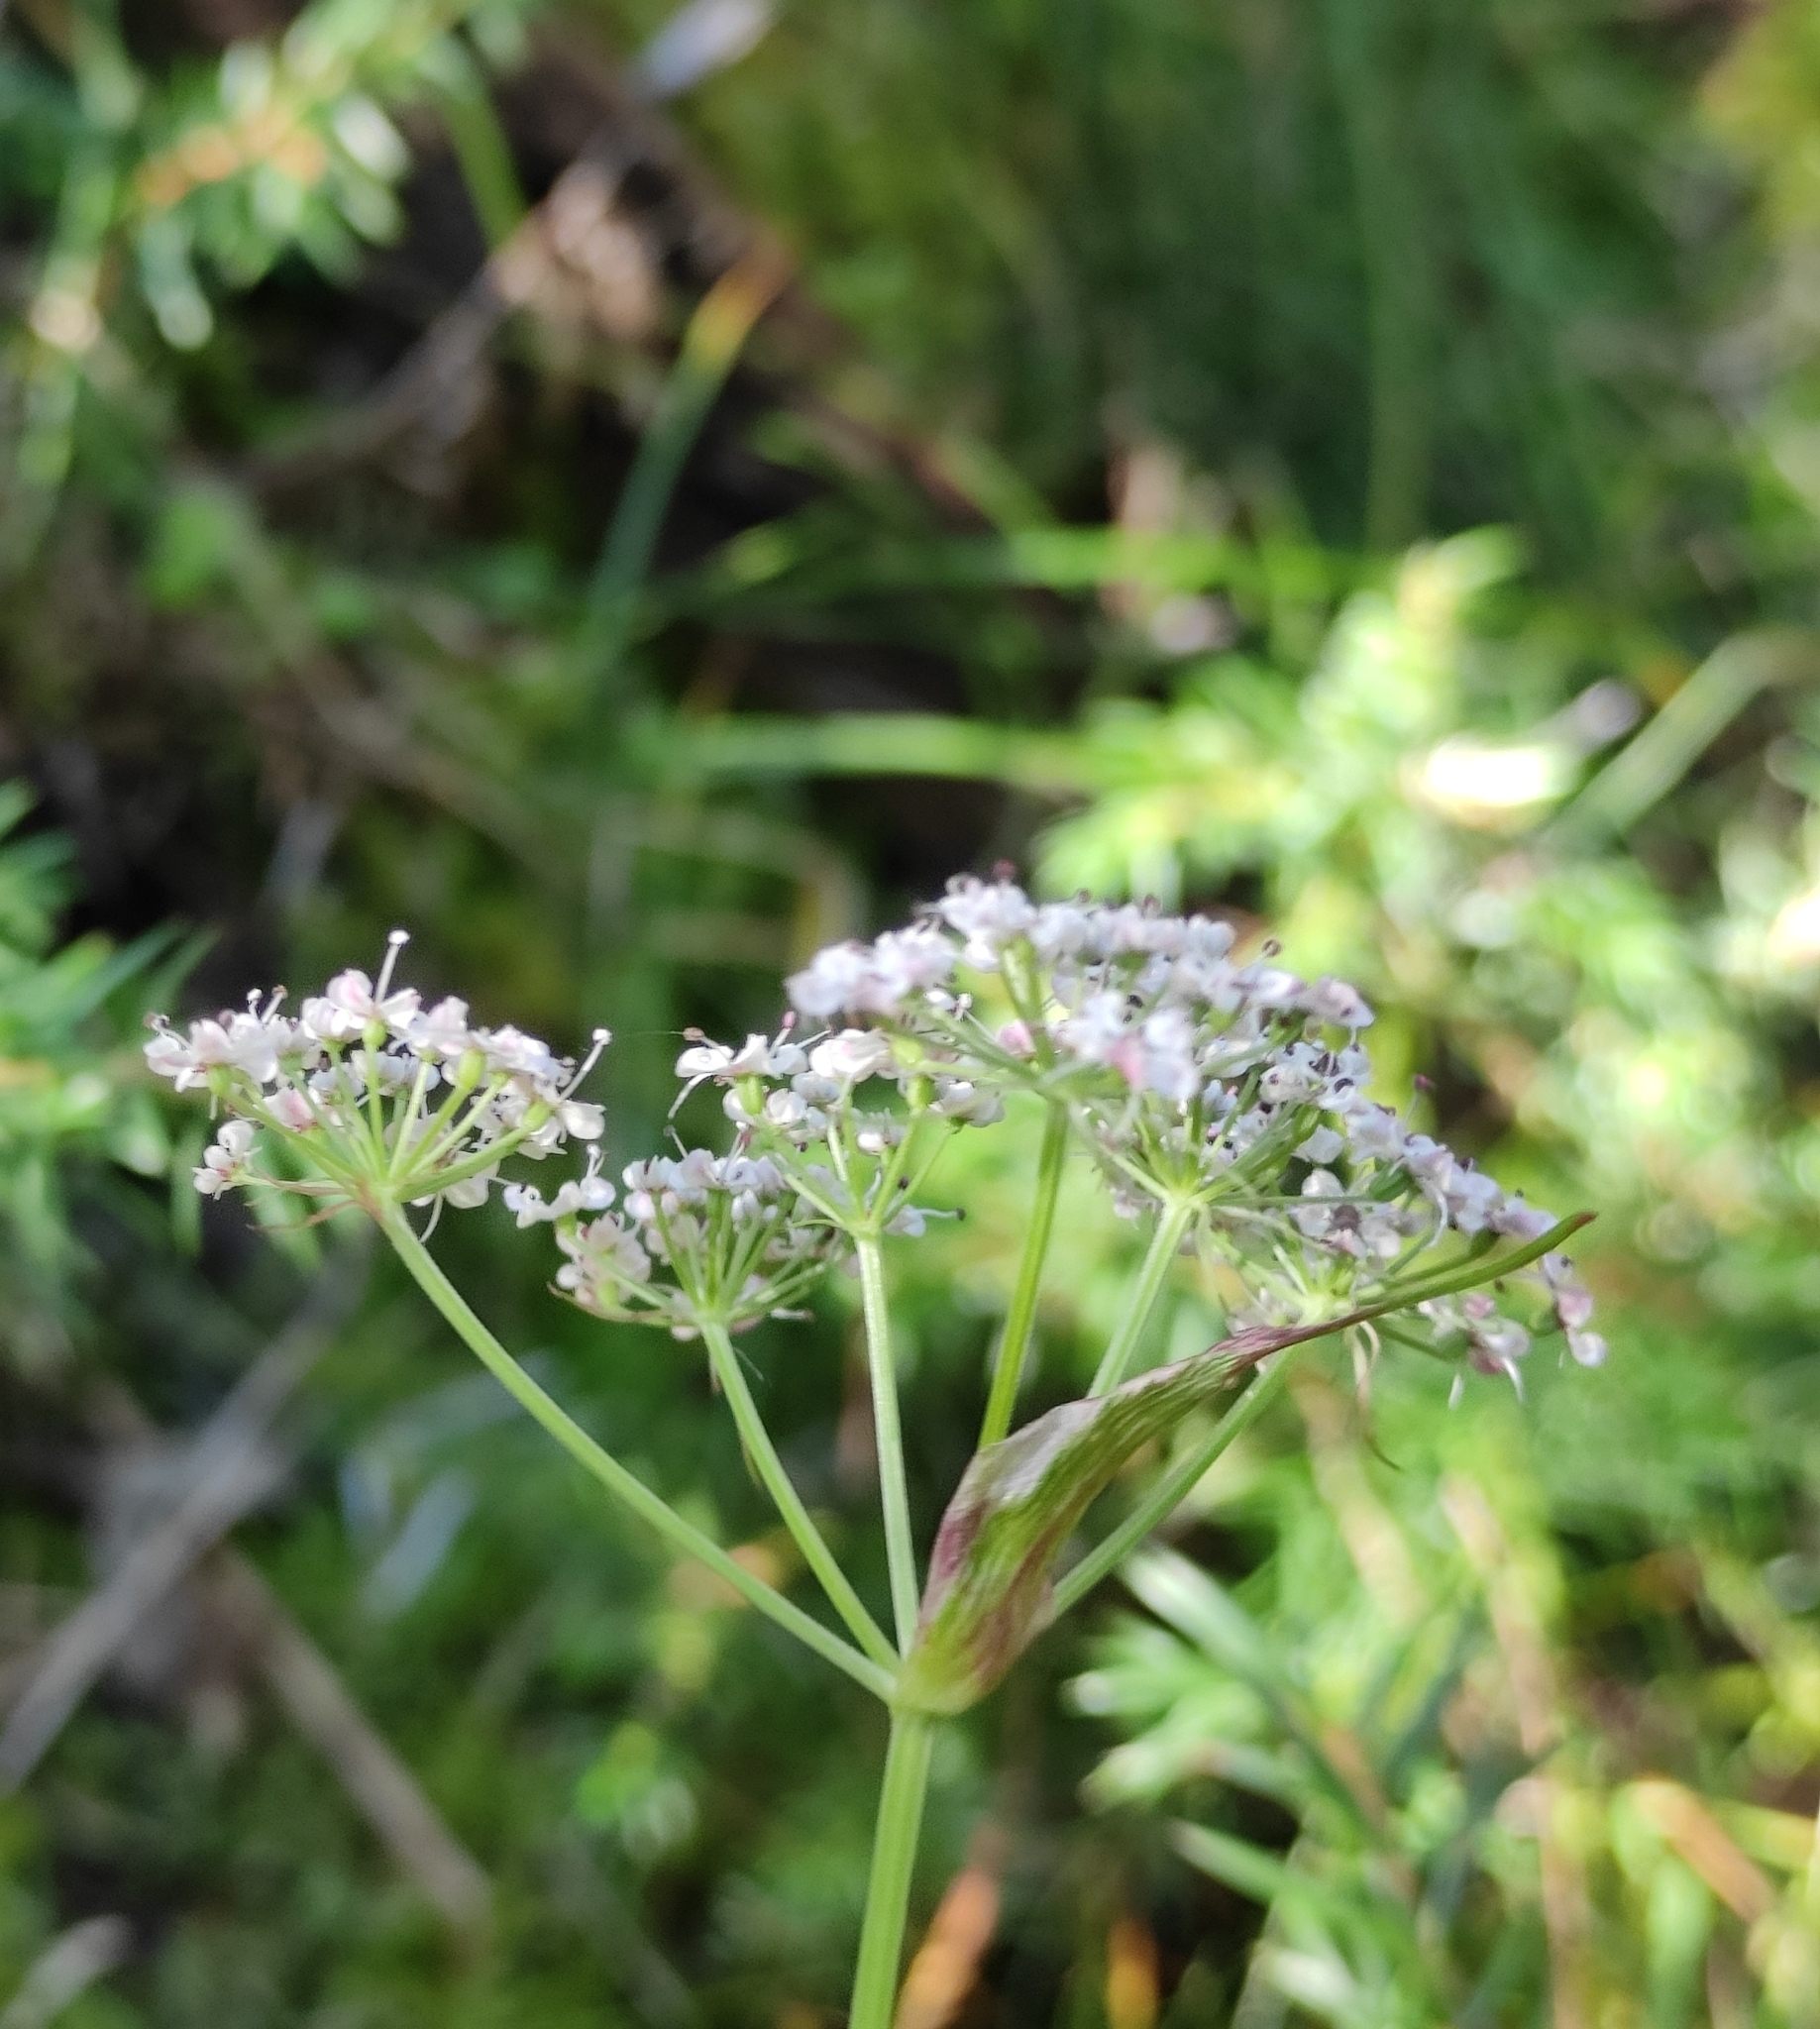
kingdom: Plantae
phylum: Tracheophyta
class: Magnoliopsida
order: Apiales
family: Apiaceae
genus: Ostericum
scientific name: Ostericum tenuifolium
